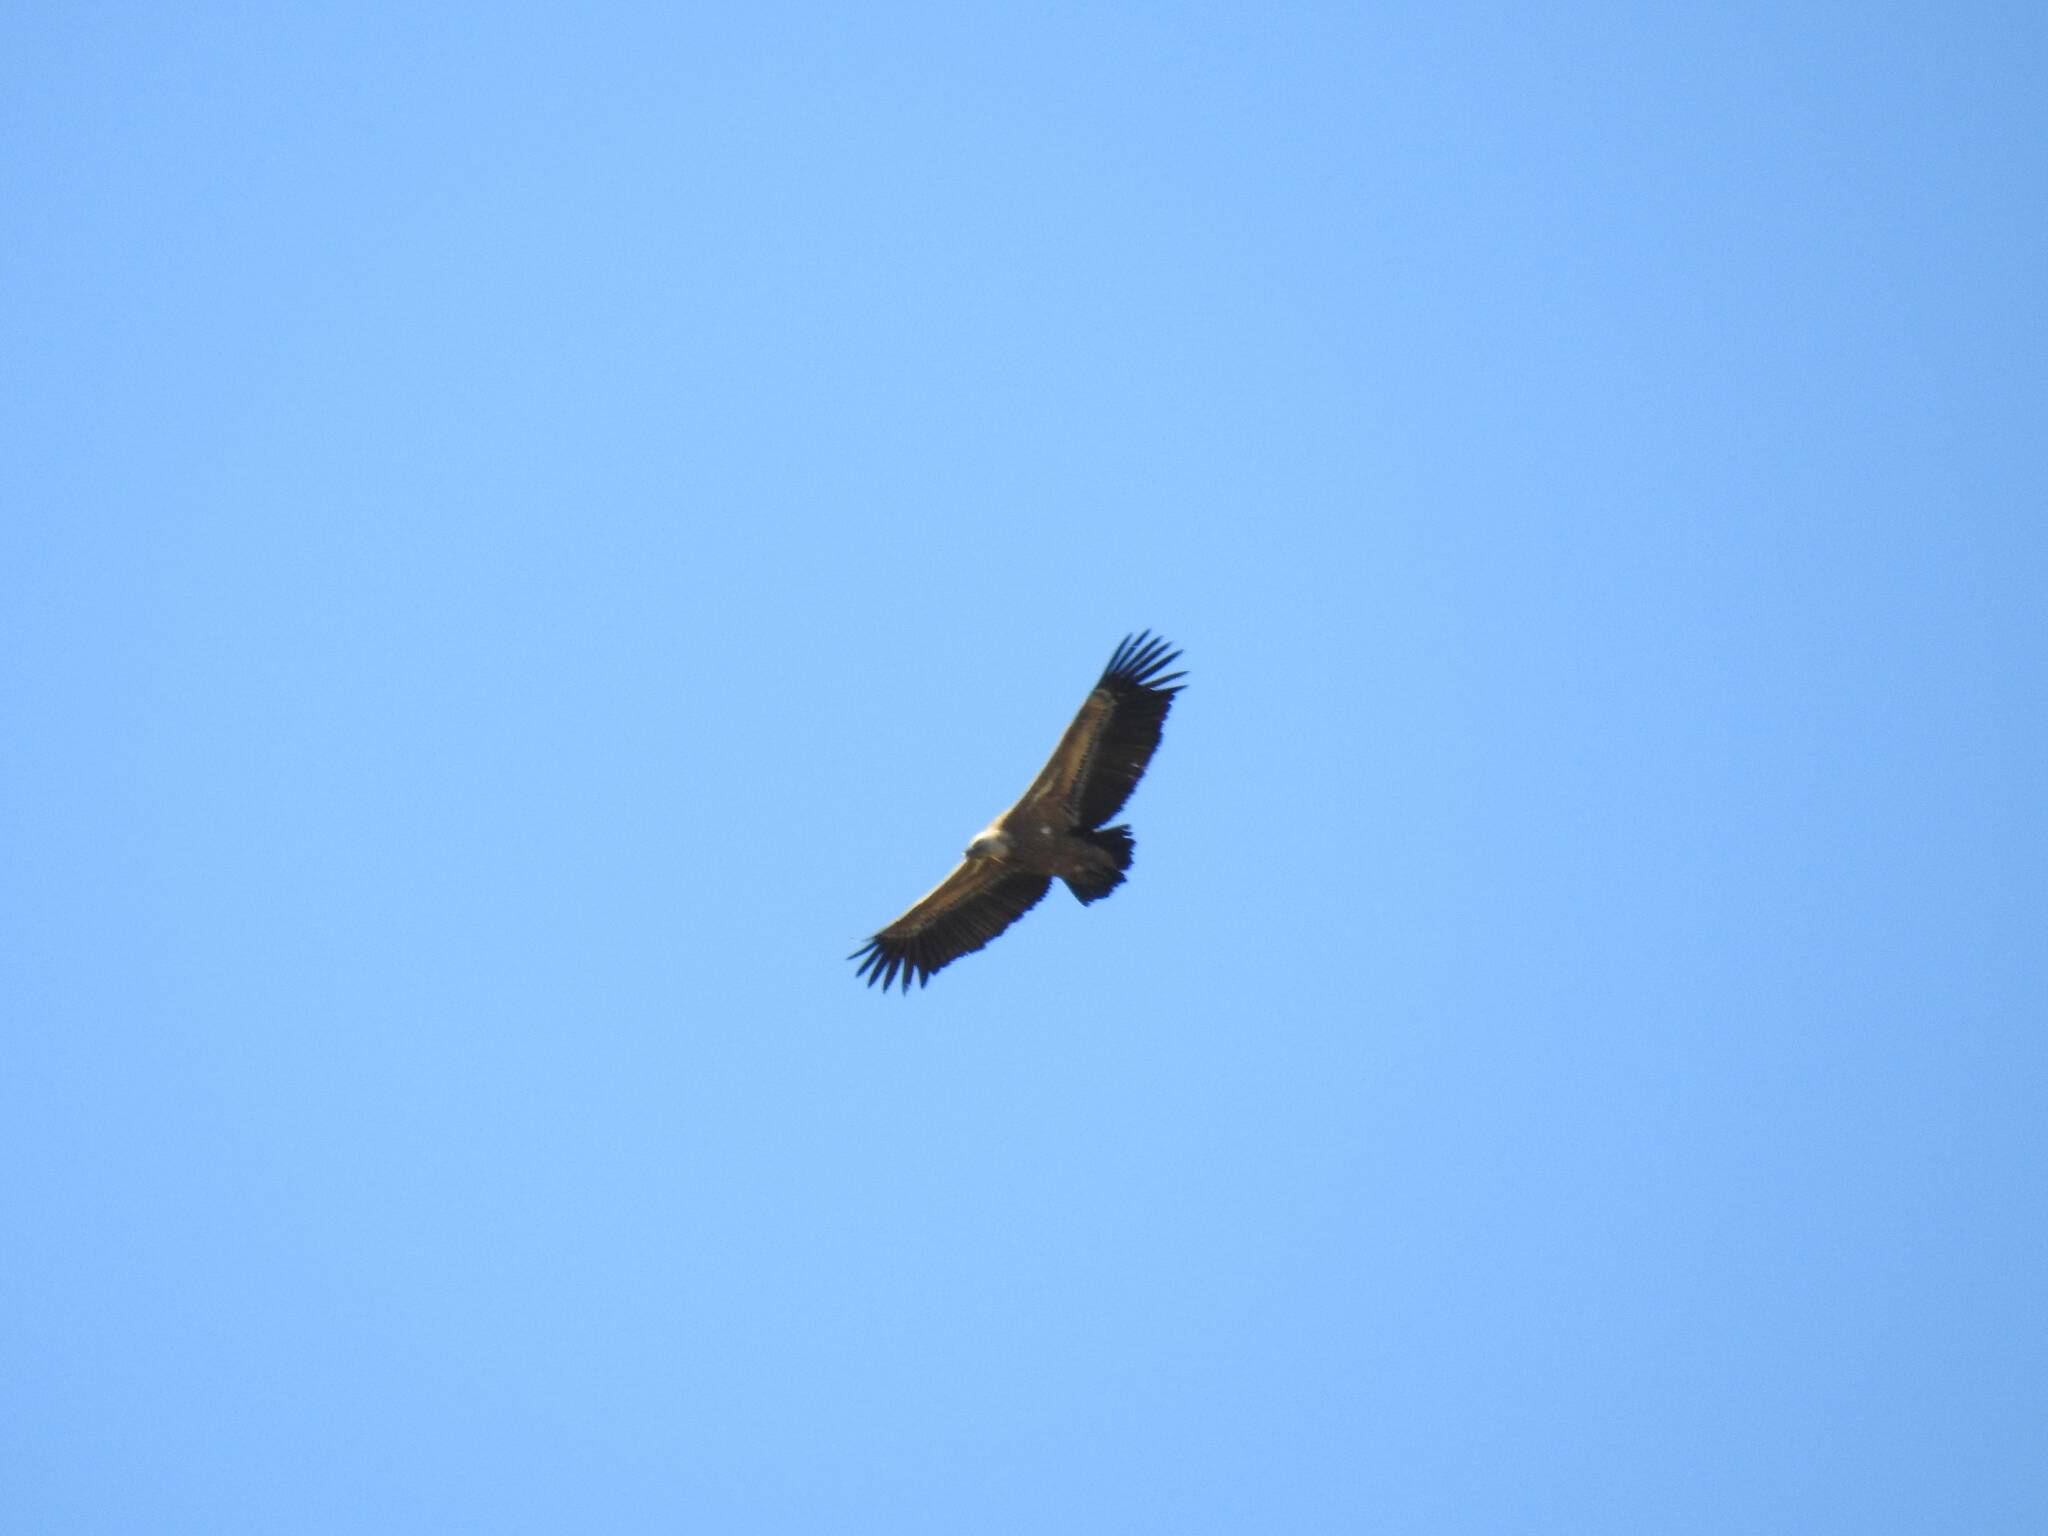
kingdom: Animalia
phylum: Chordata
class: Aves
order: Accipitriformes
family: Accipitridae
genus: Gyps
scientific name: Gyps fulvus
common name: Griffon vulture
